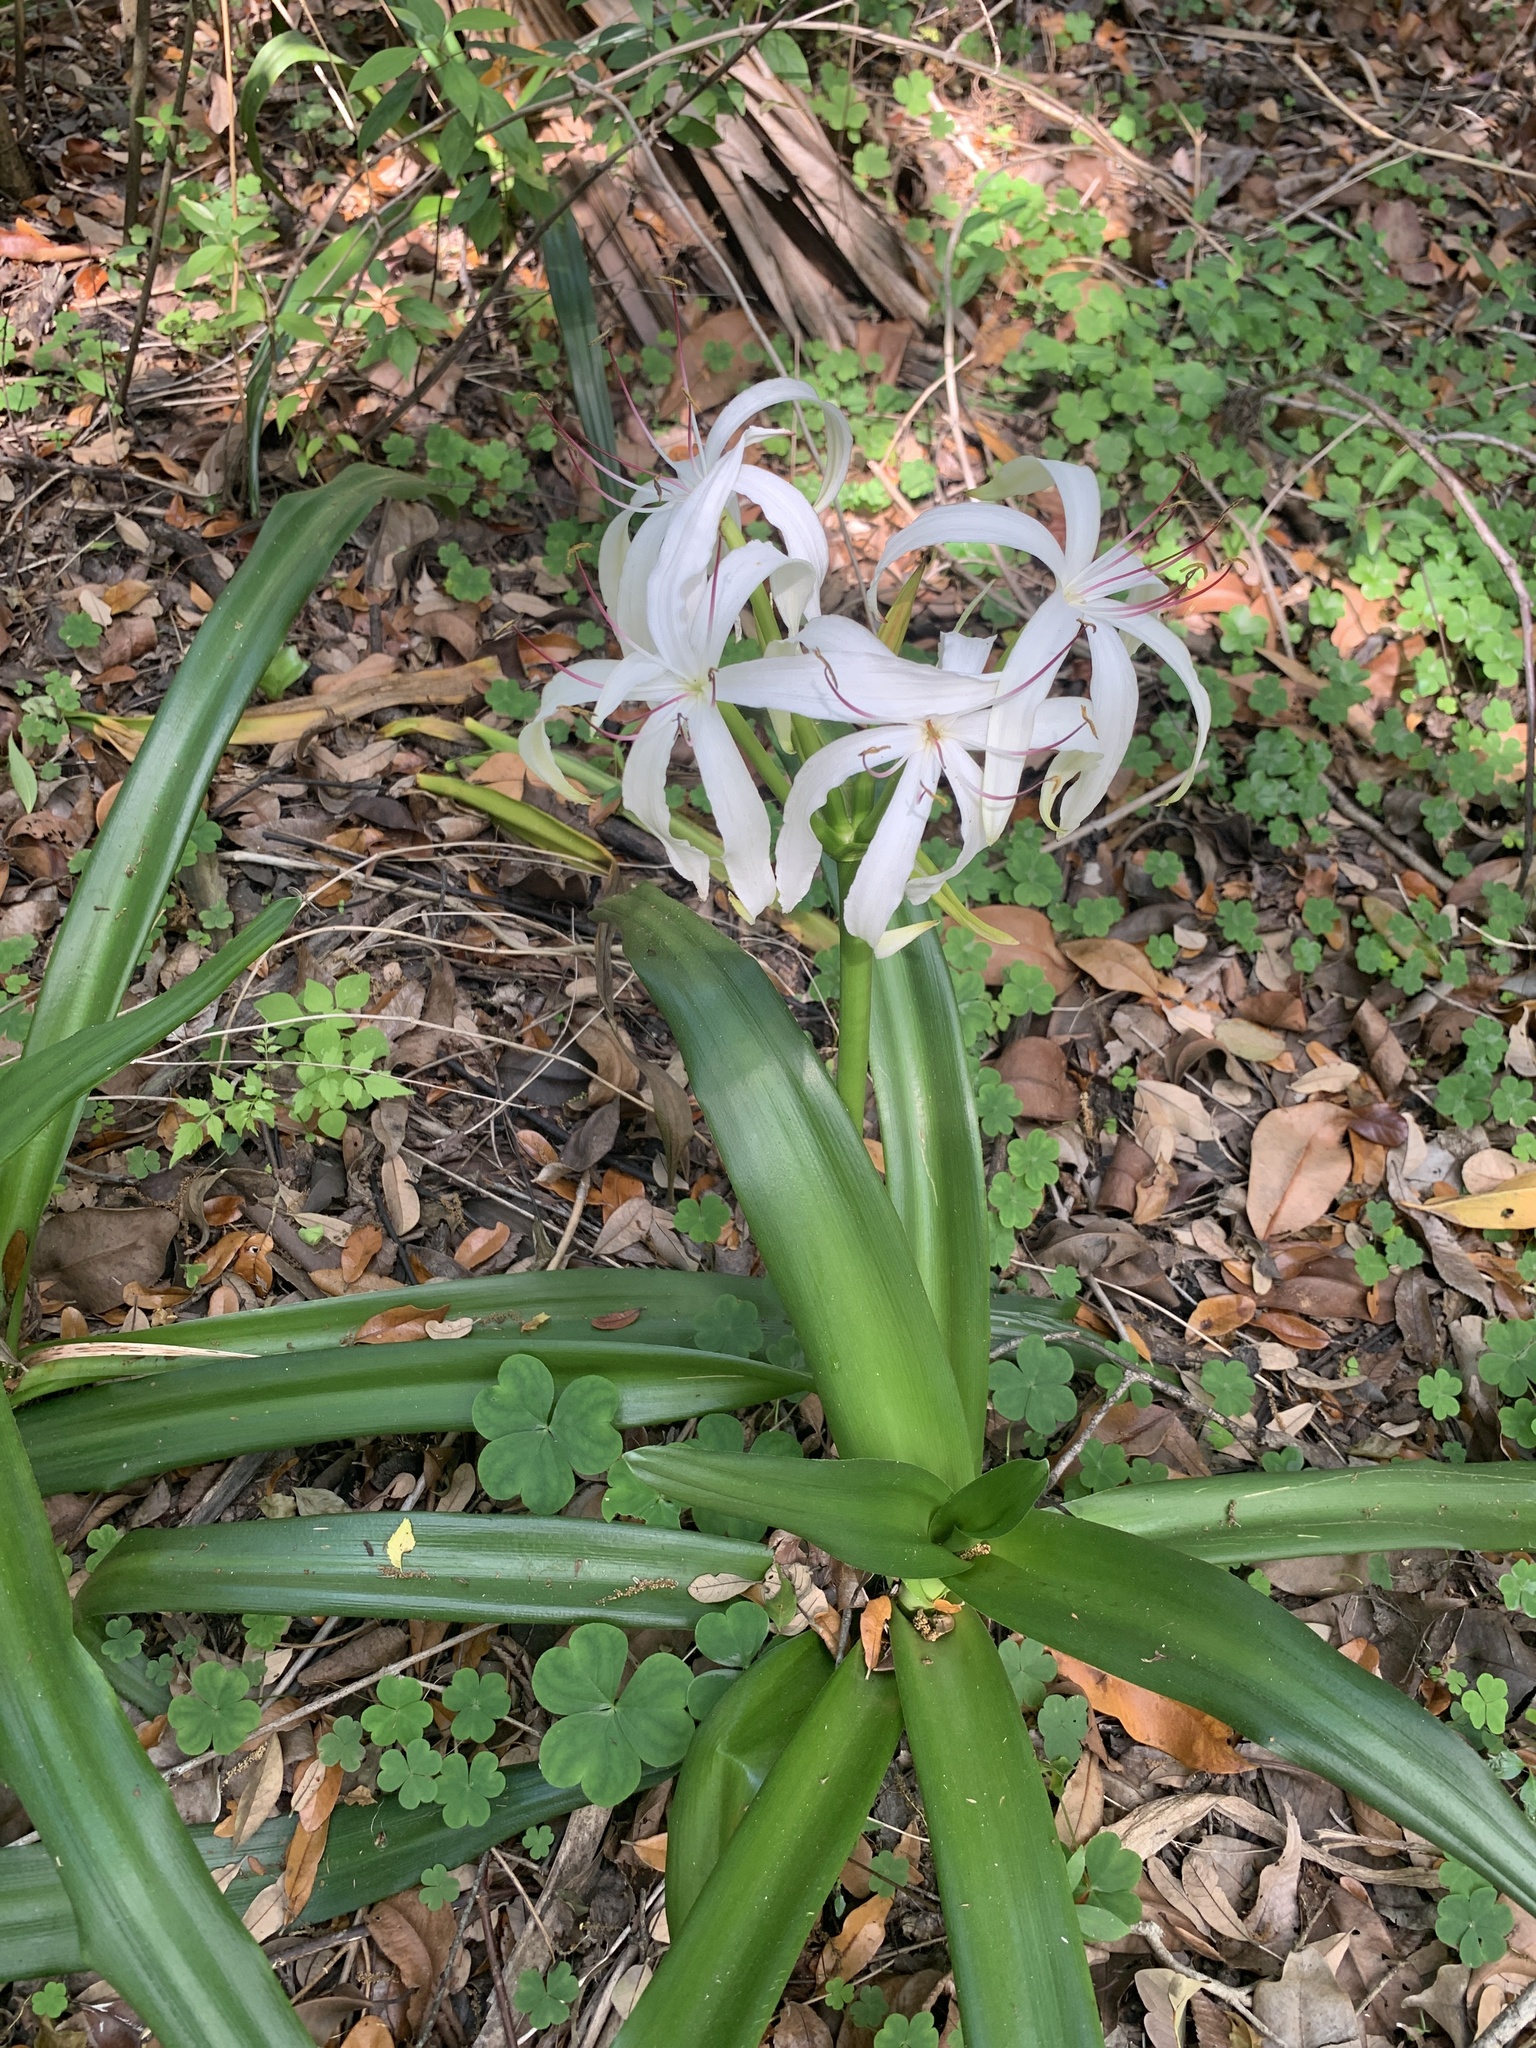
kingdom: Plantae
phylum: Tracheophyta
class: Liliopsida
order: Asparagales
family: Amaryllidaceae
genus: Crinum
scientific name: Crinum americanum
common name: Florida swamp-lily
